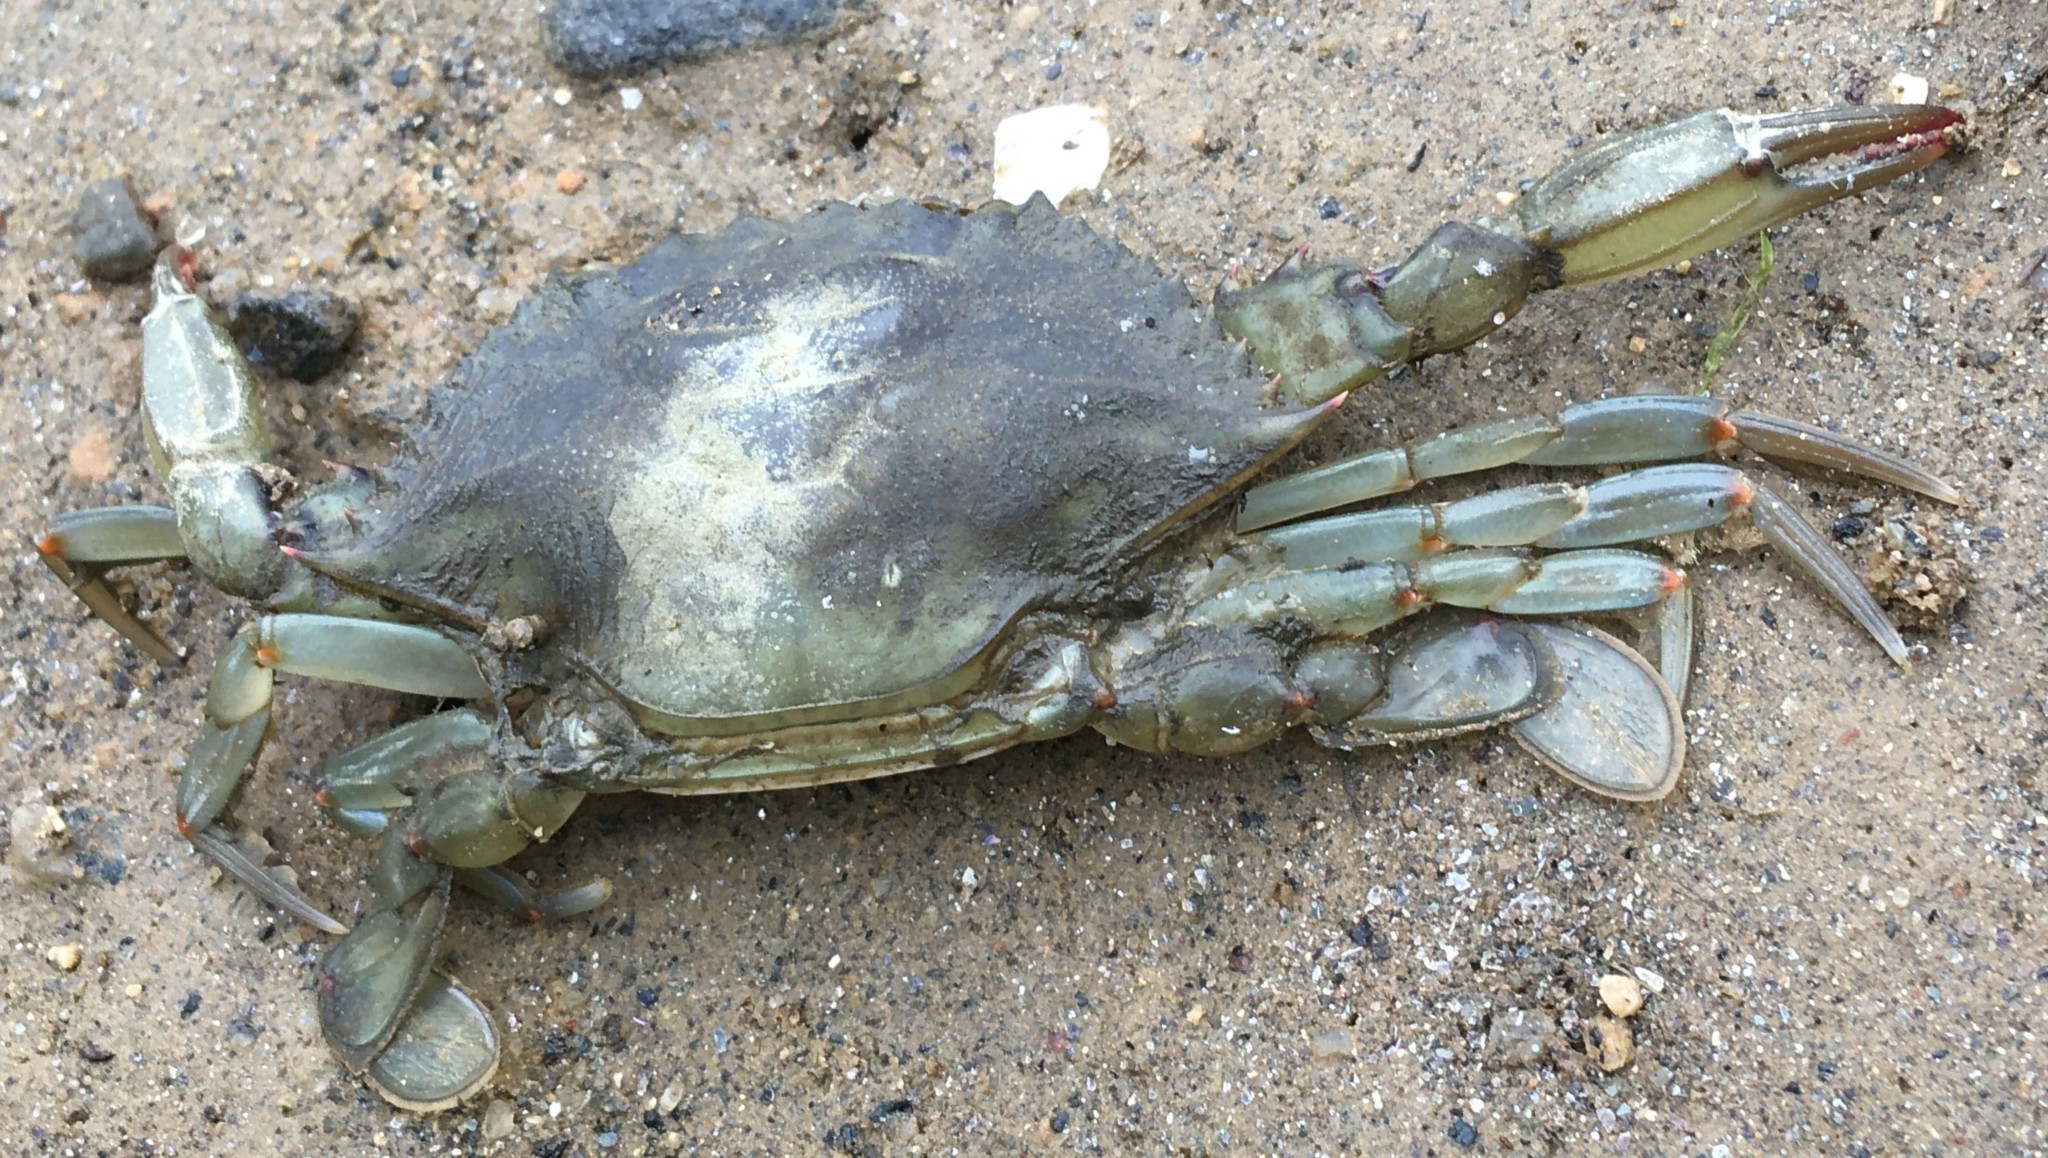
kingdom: Animalia
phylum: Arthropoda
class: Malacostraca
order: Decapoda
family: Portunidae
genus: Callinectes
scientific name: Callinectes sapidus
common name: Blue crab
